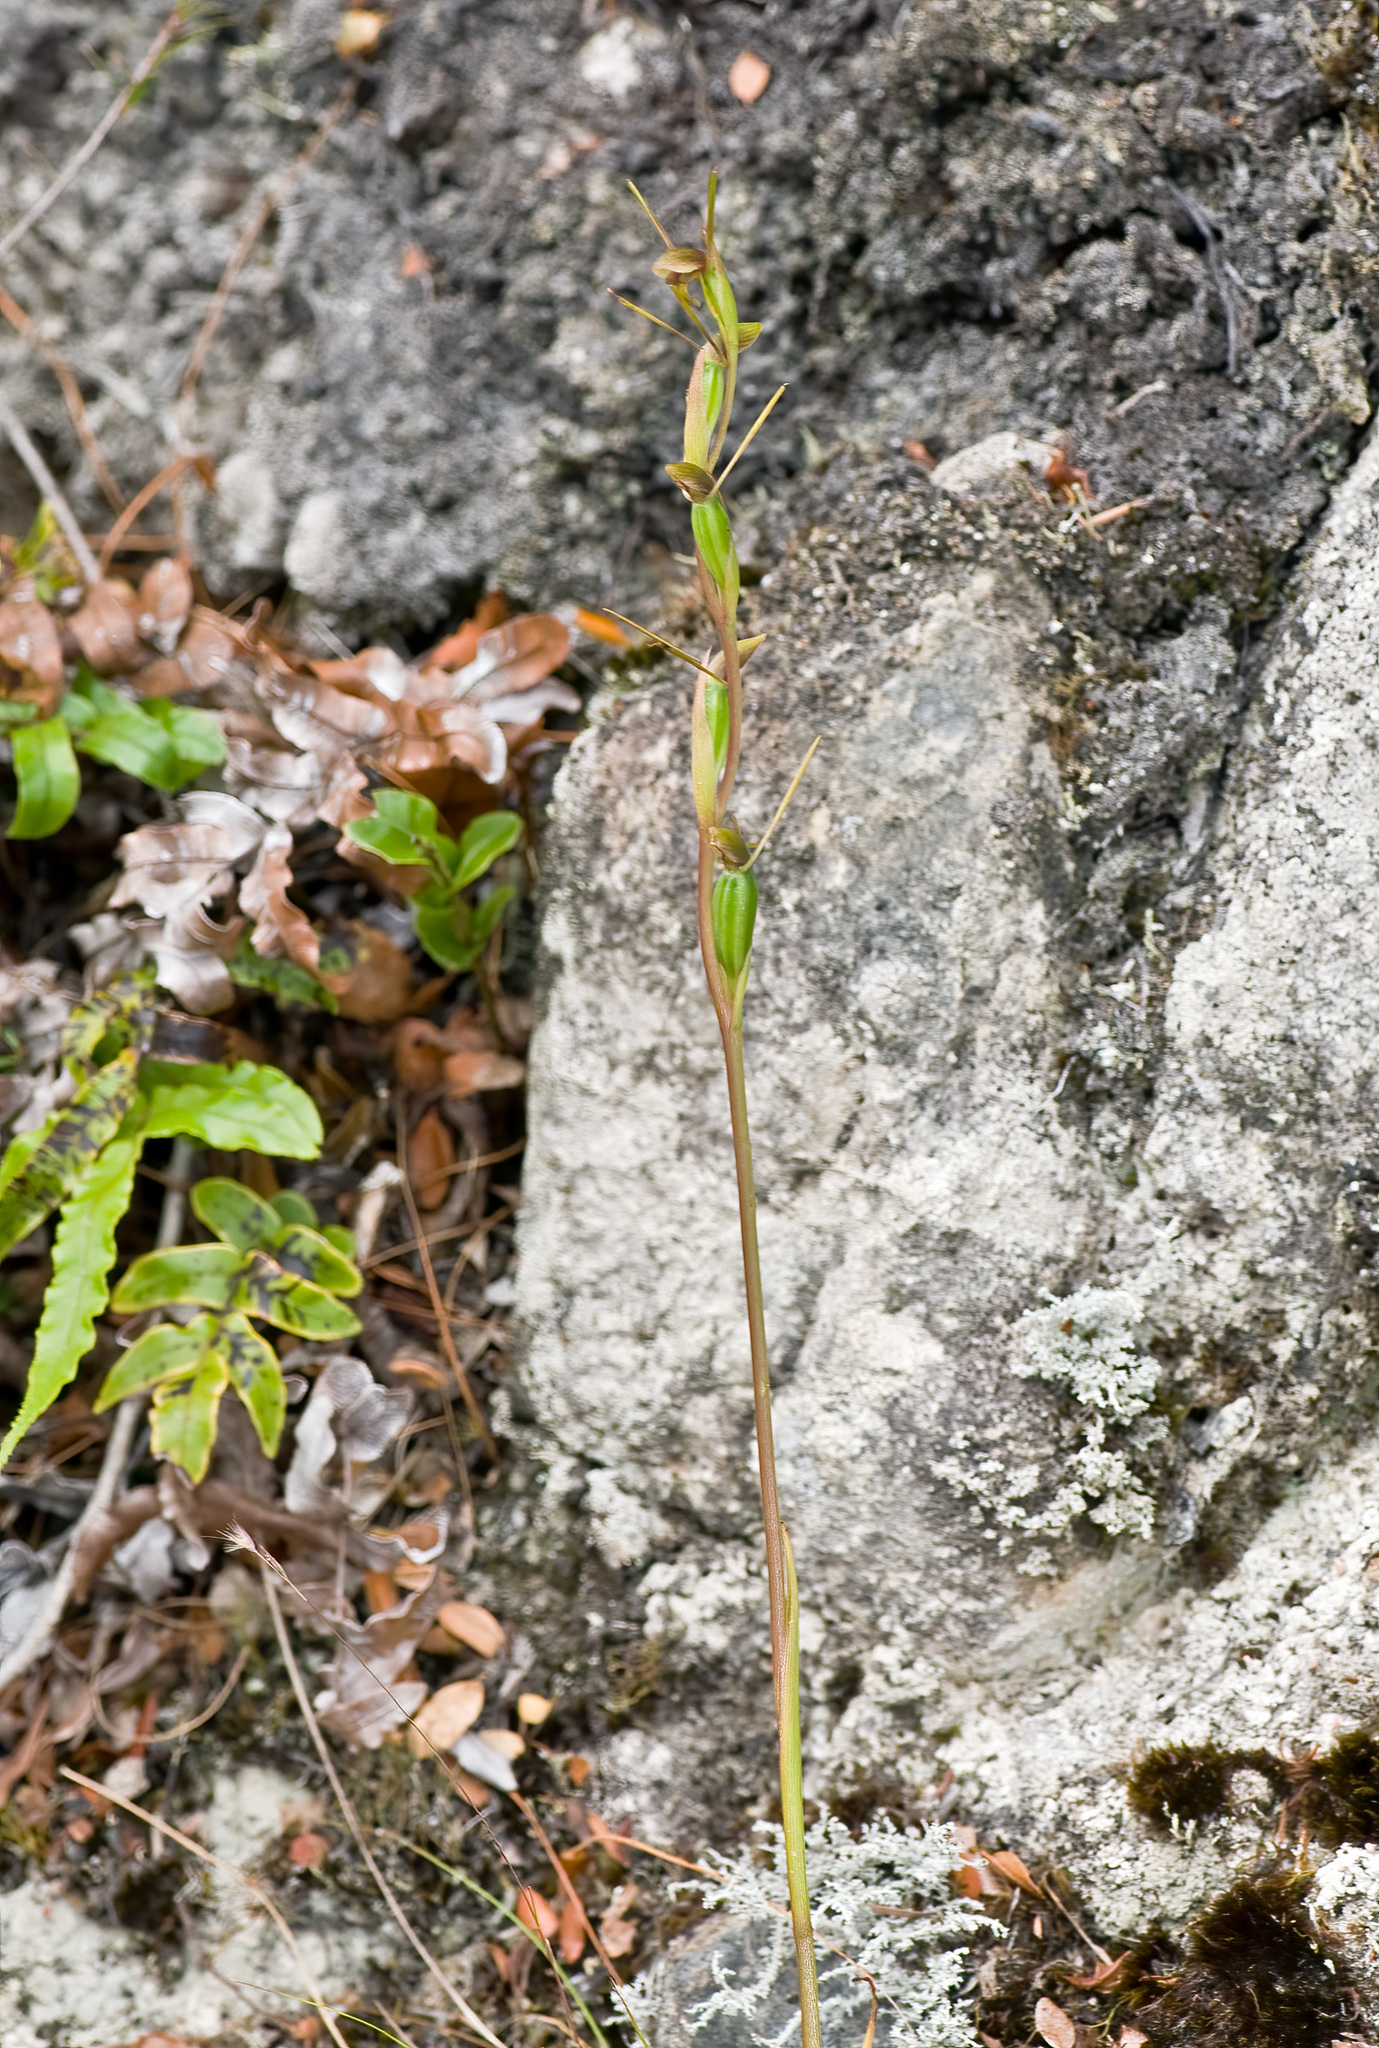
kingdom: Plantae
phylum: Tracheophyta
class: Liliopsida
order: Asparagales
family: Orchidaceae
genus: Orthoceras
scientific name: Orthoceras novae-zeelandiae
